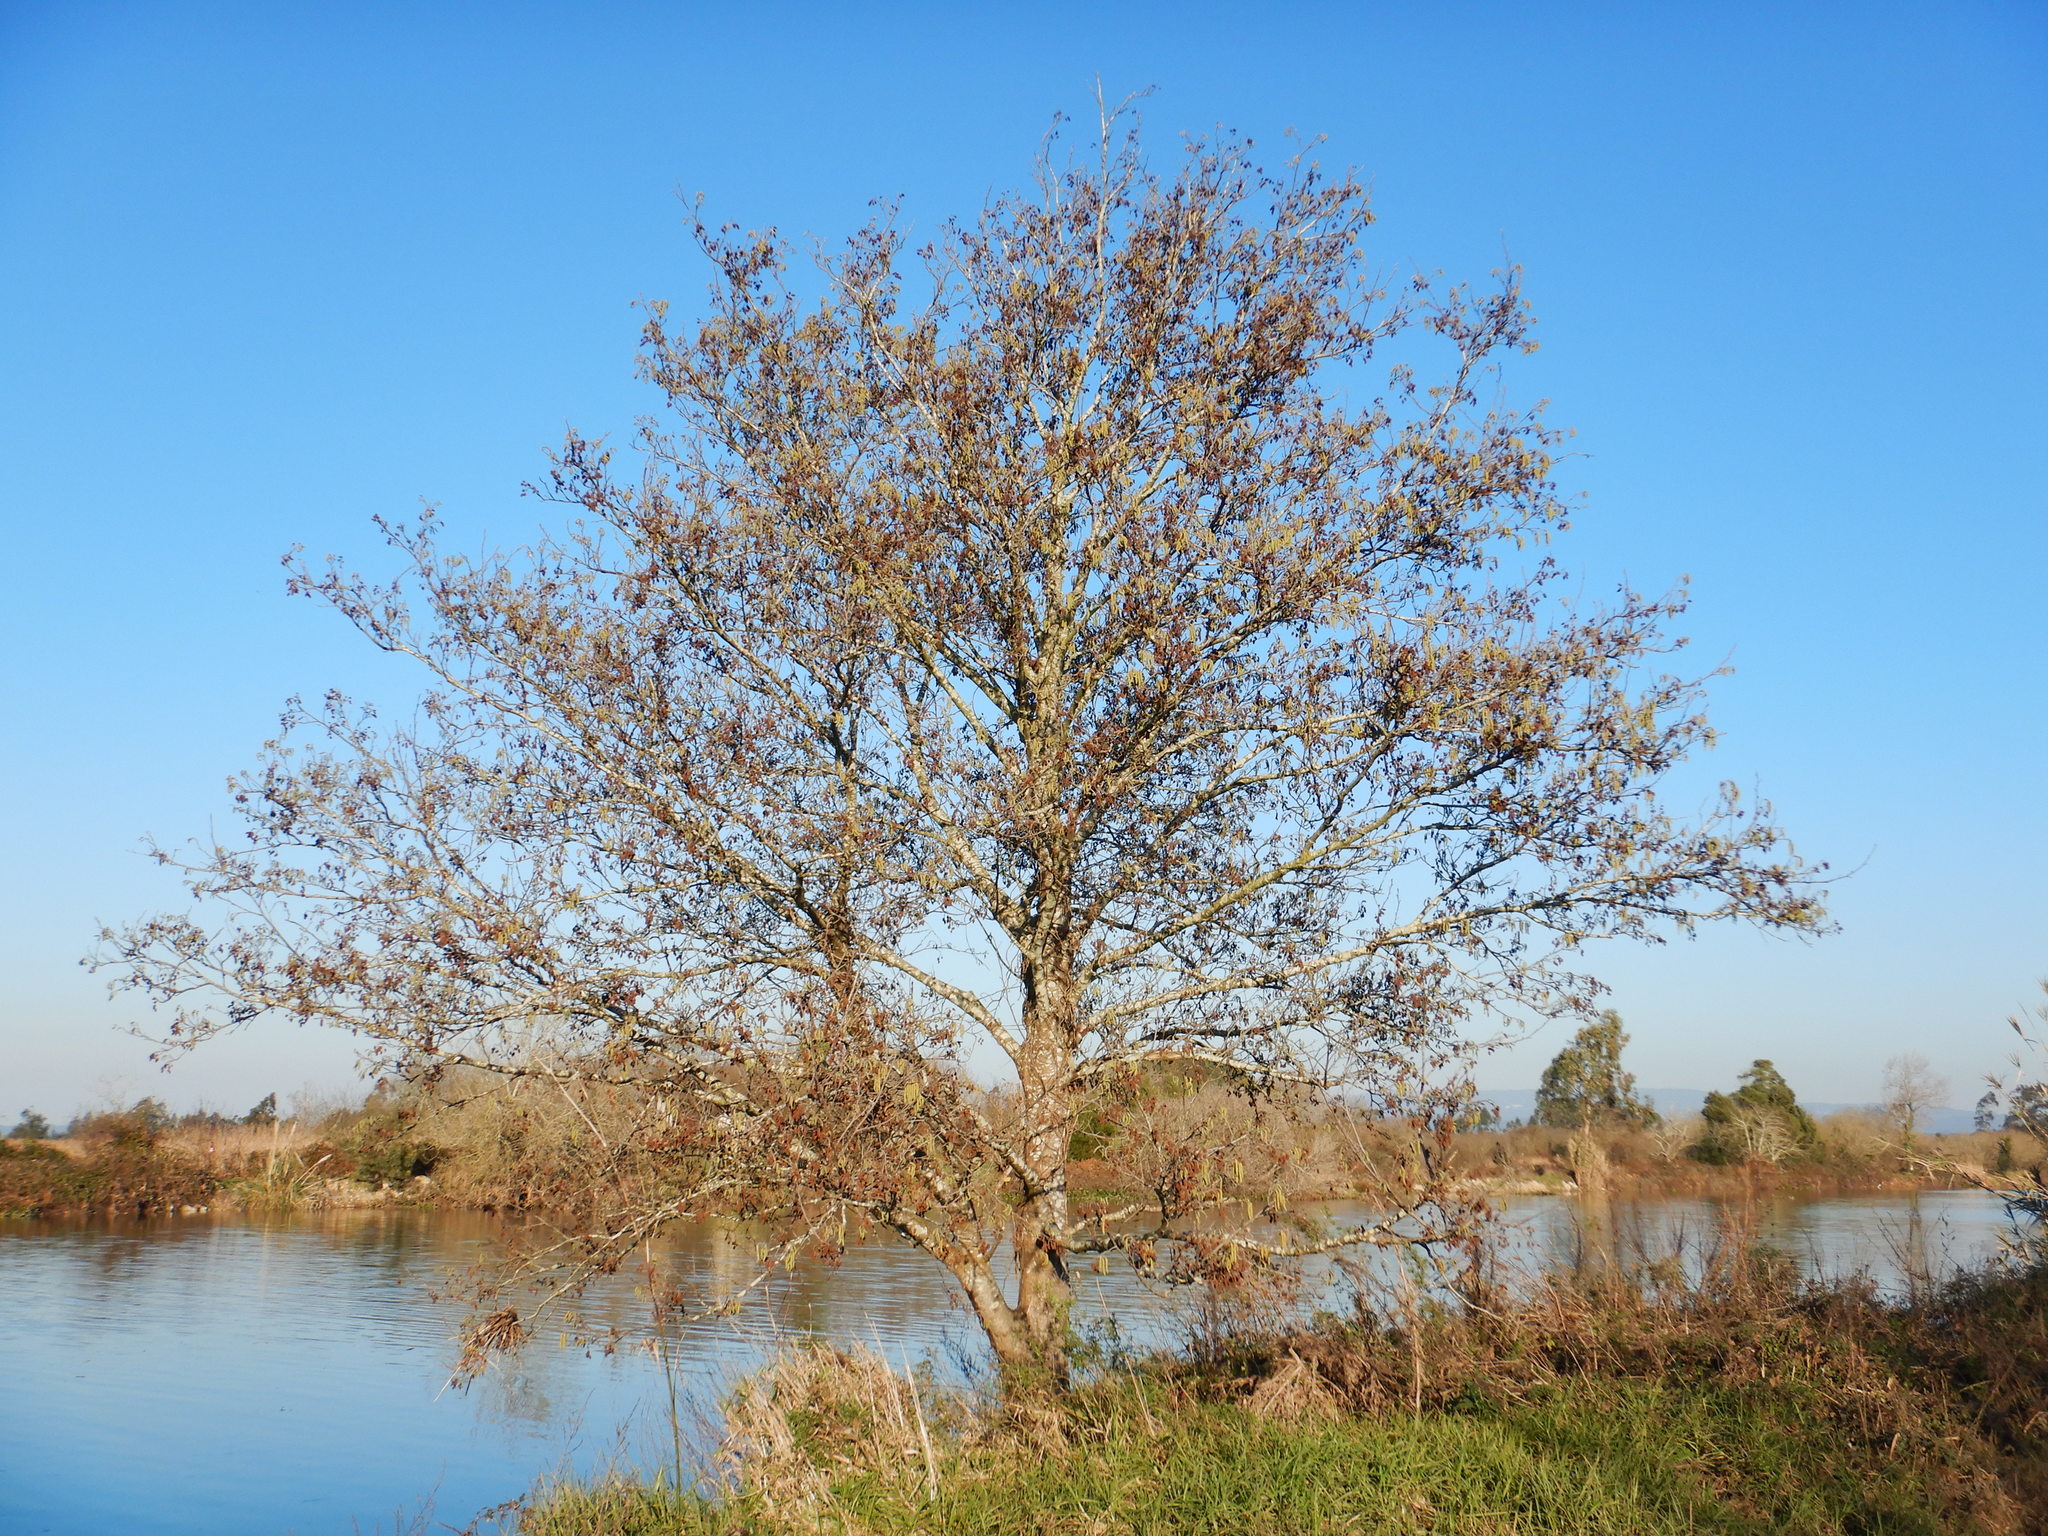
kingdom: Plantae
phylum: Tracheophyta
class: Magnoliopsida
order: Fagales
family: Betulaceae
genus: Alnus
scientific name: Alnus lusitanica
